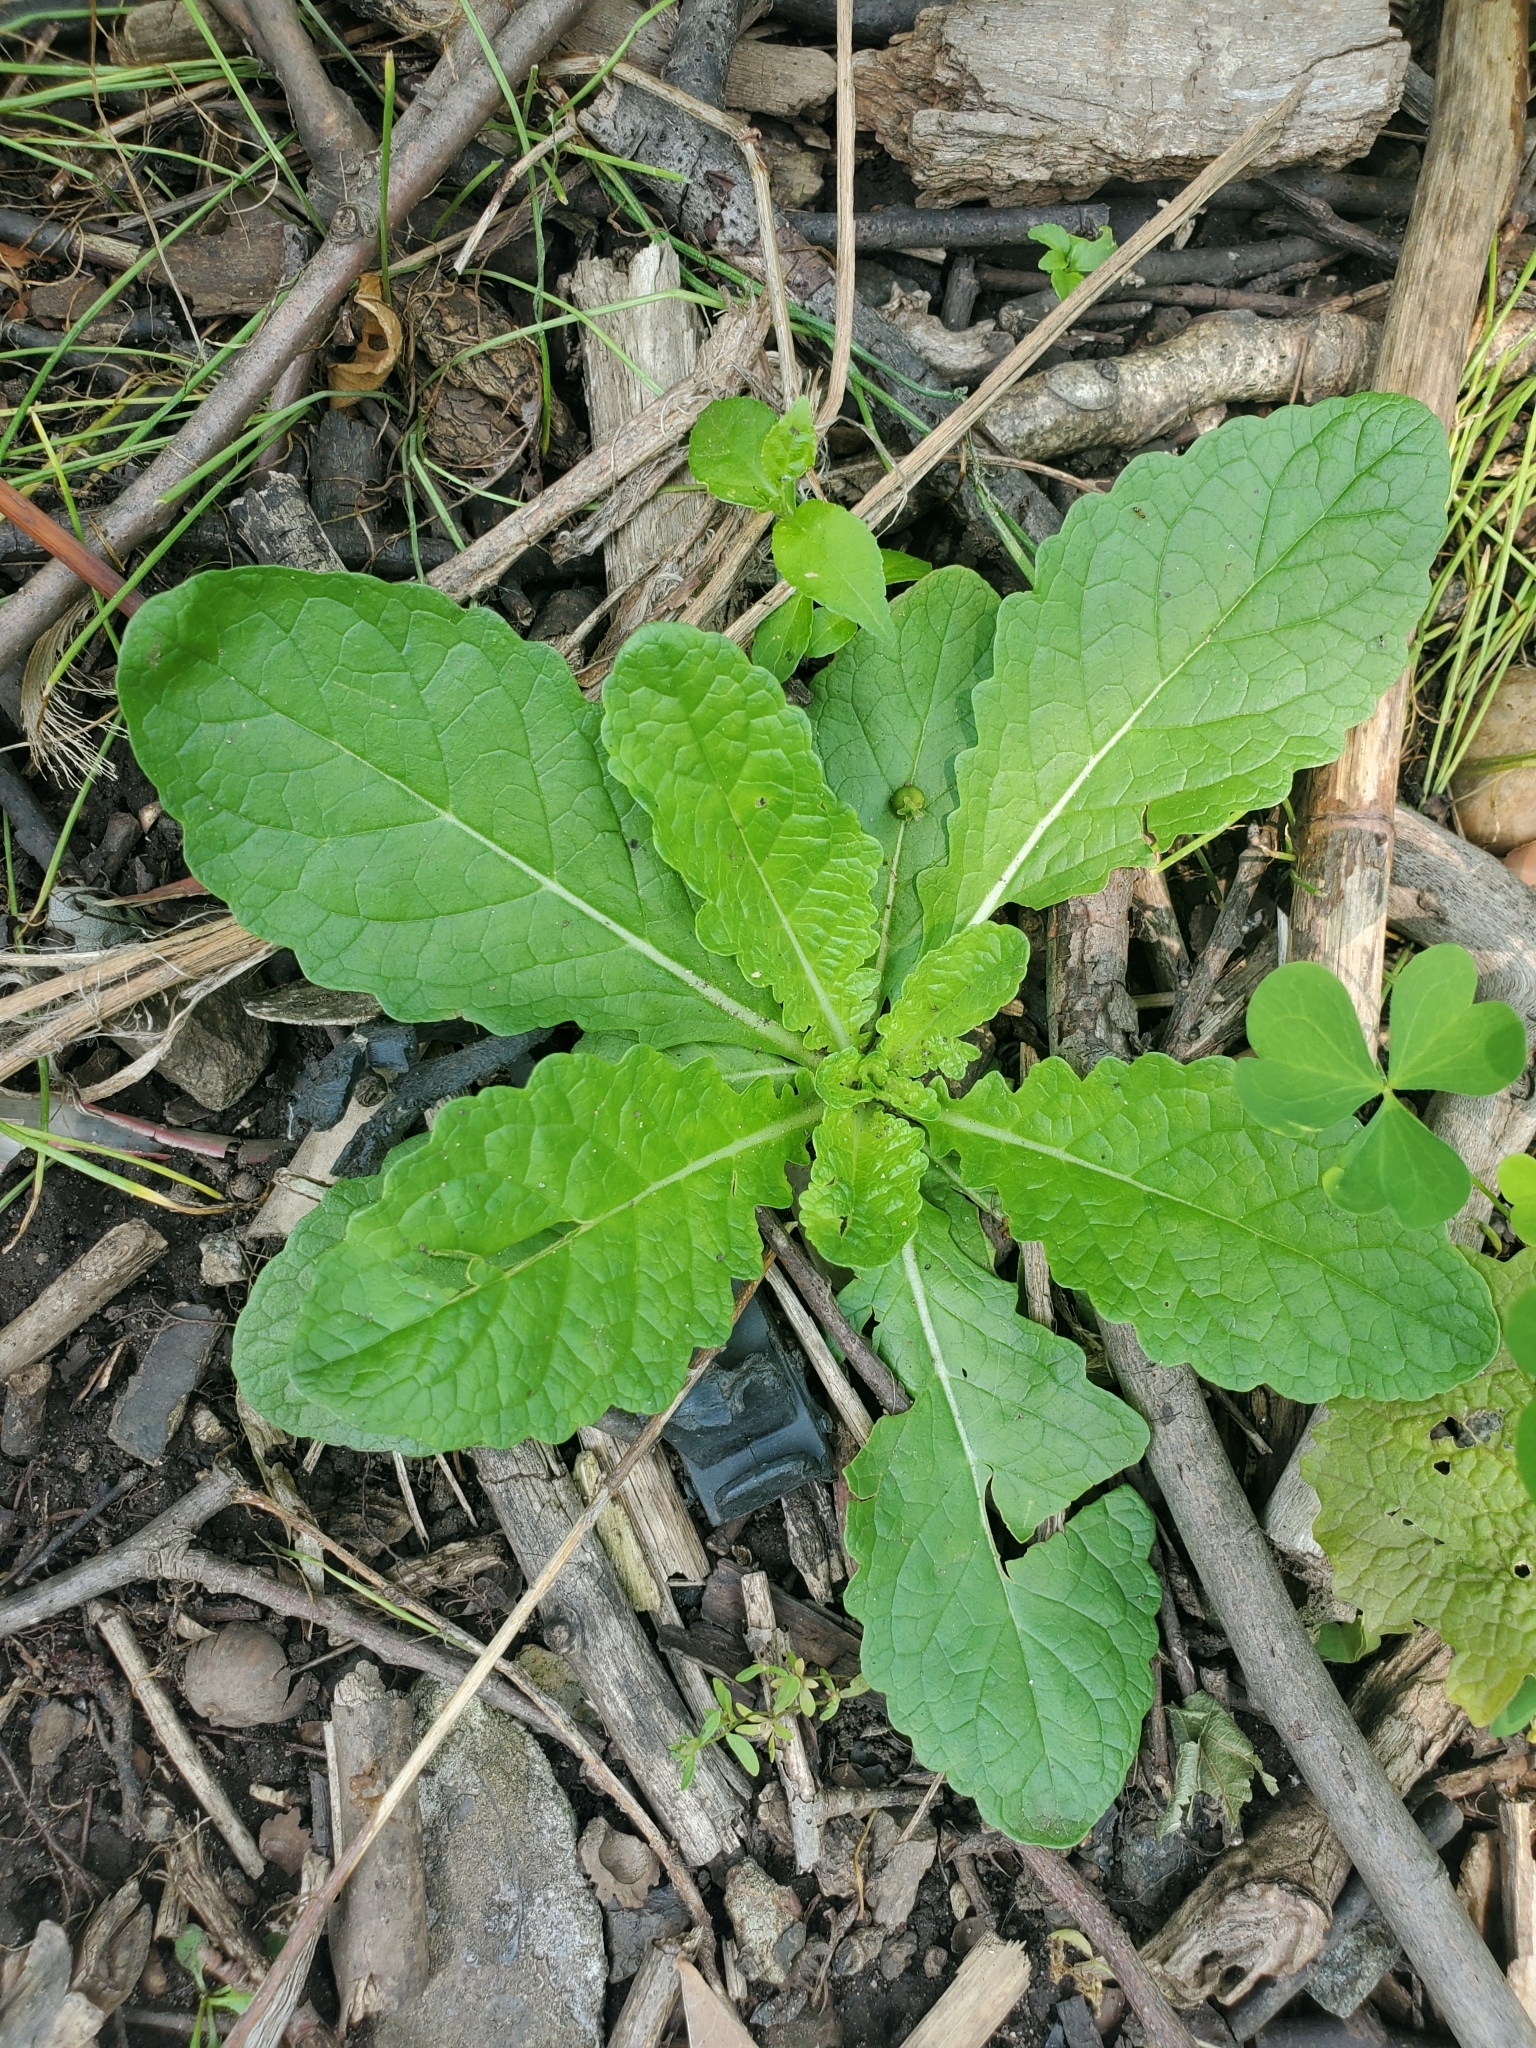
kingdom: Plantae
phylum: Tracheophyta
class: Magnoliopsida
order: Lamiales
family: Scrophulariaceae
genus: Verbascum
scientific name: Verbascum blattaria
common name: Moth mullein
